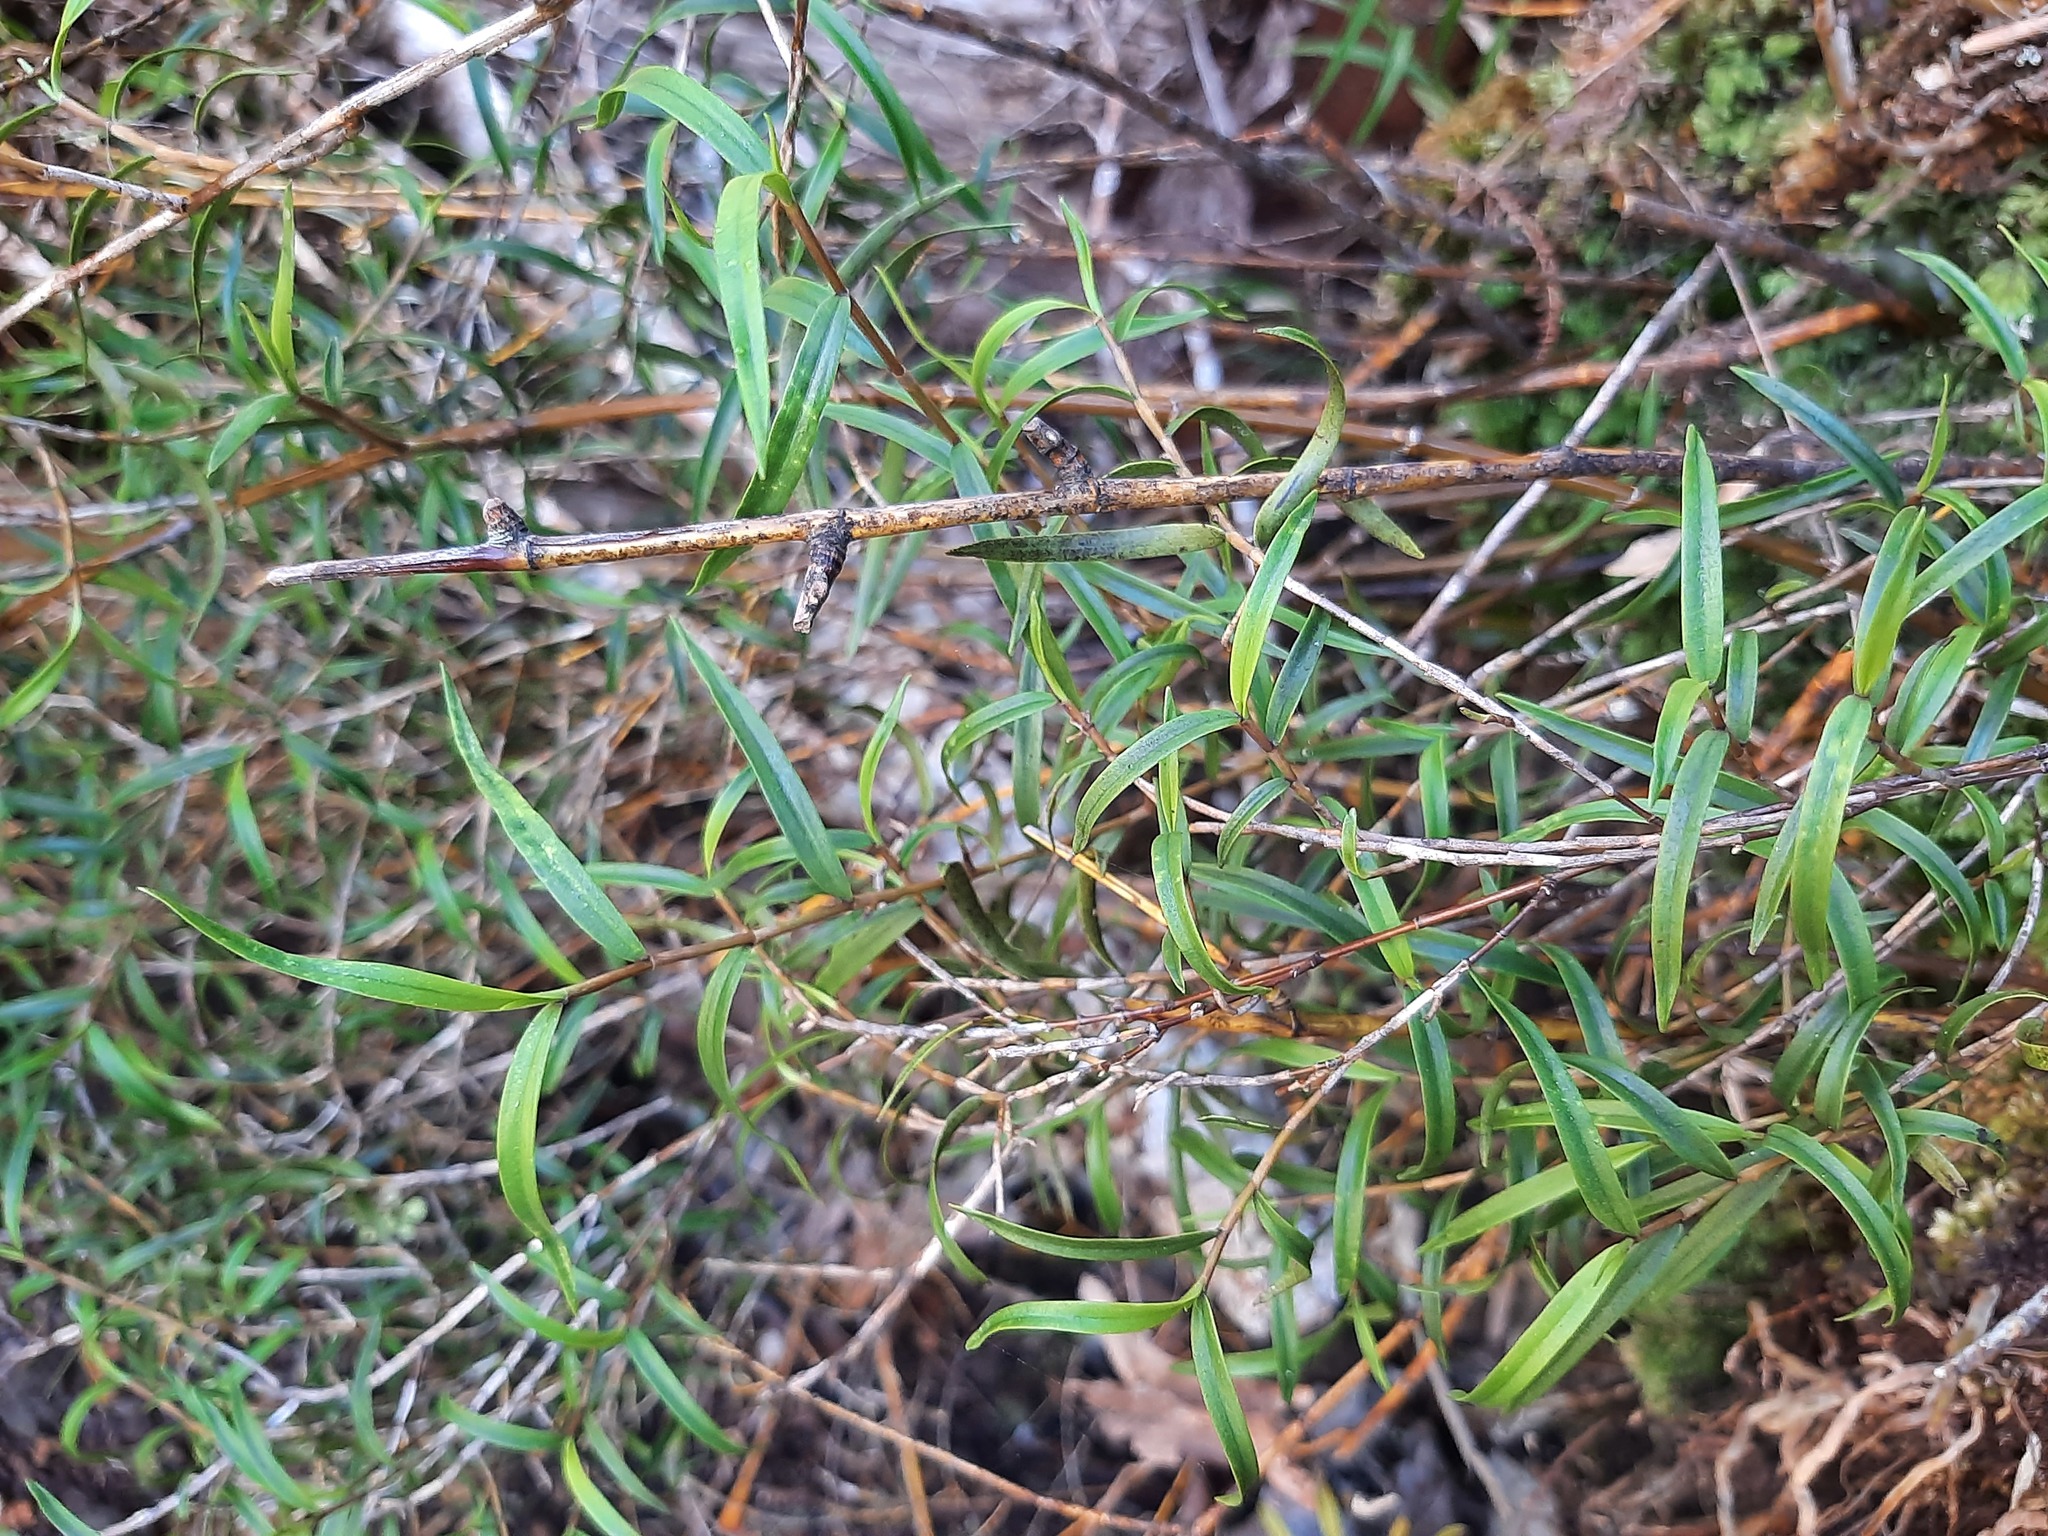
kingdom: Plantae
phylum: Tracheophyta
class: Liliopsida
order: Asparagales
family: Orchidaceae
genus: Dendrobium
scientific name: Dendrobium cunninghamii
